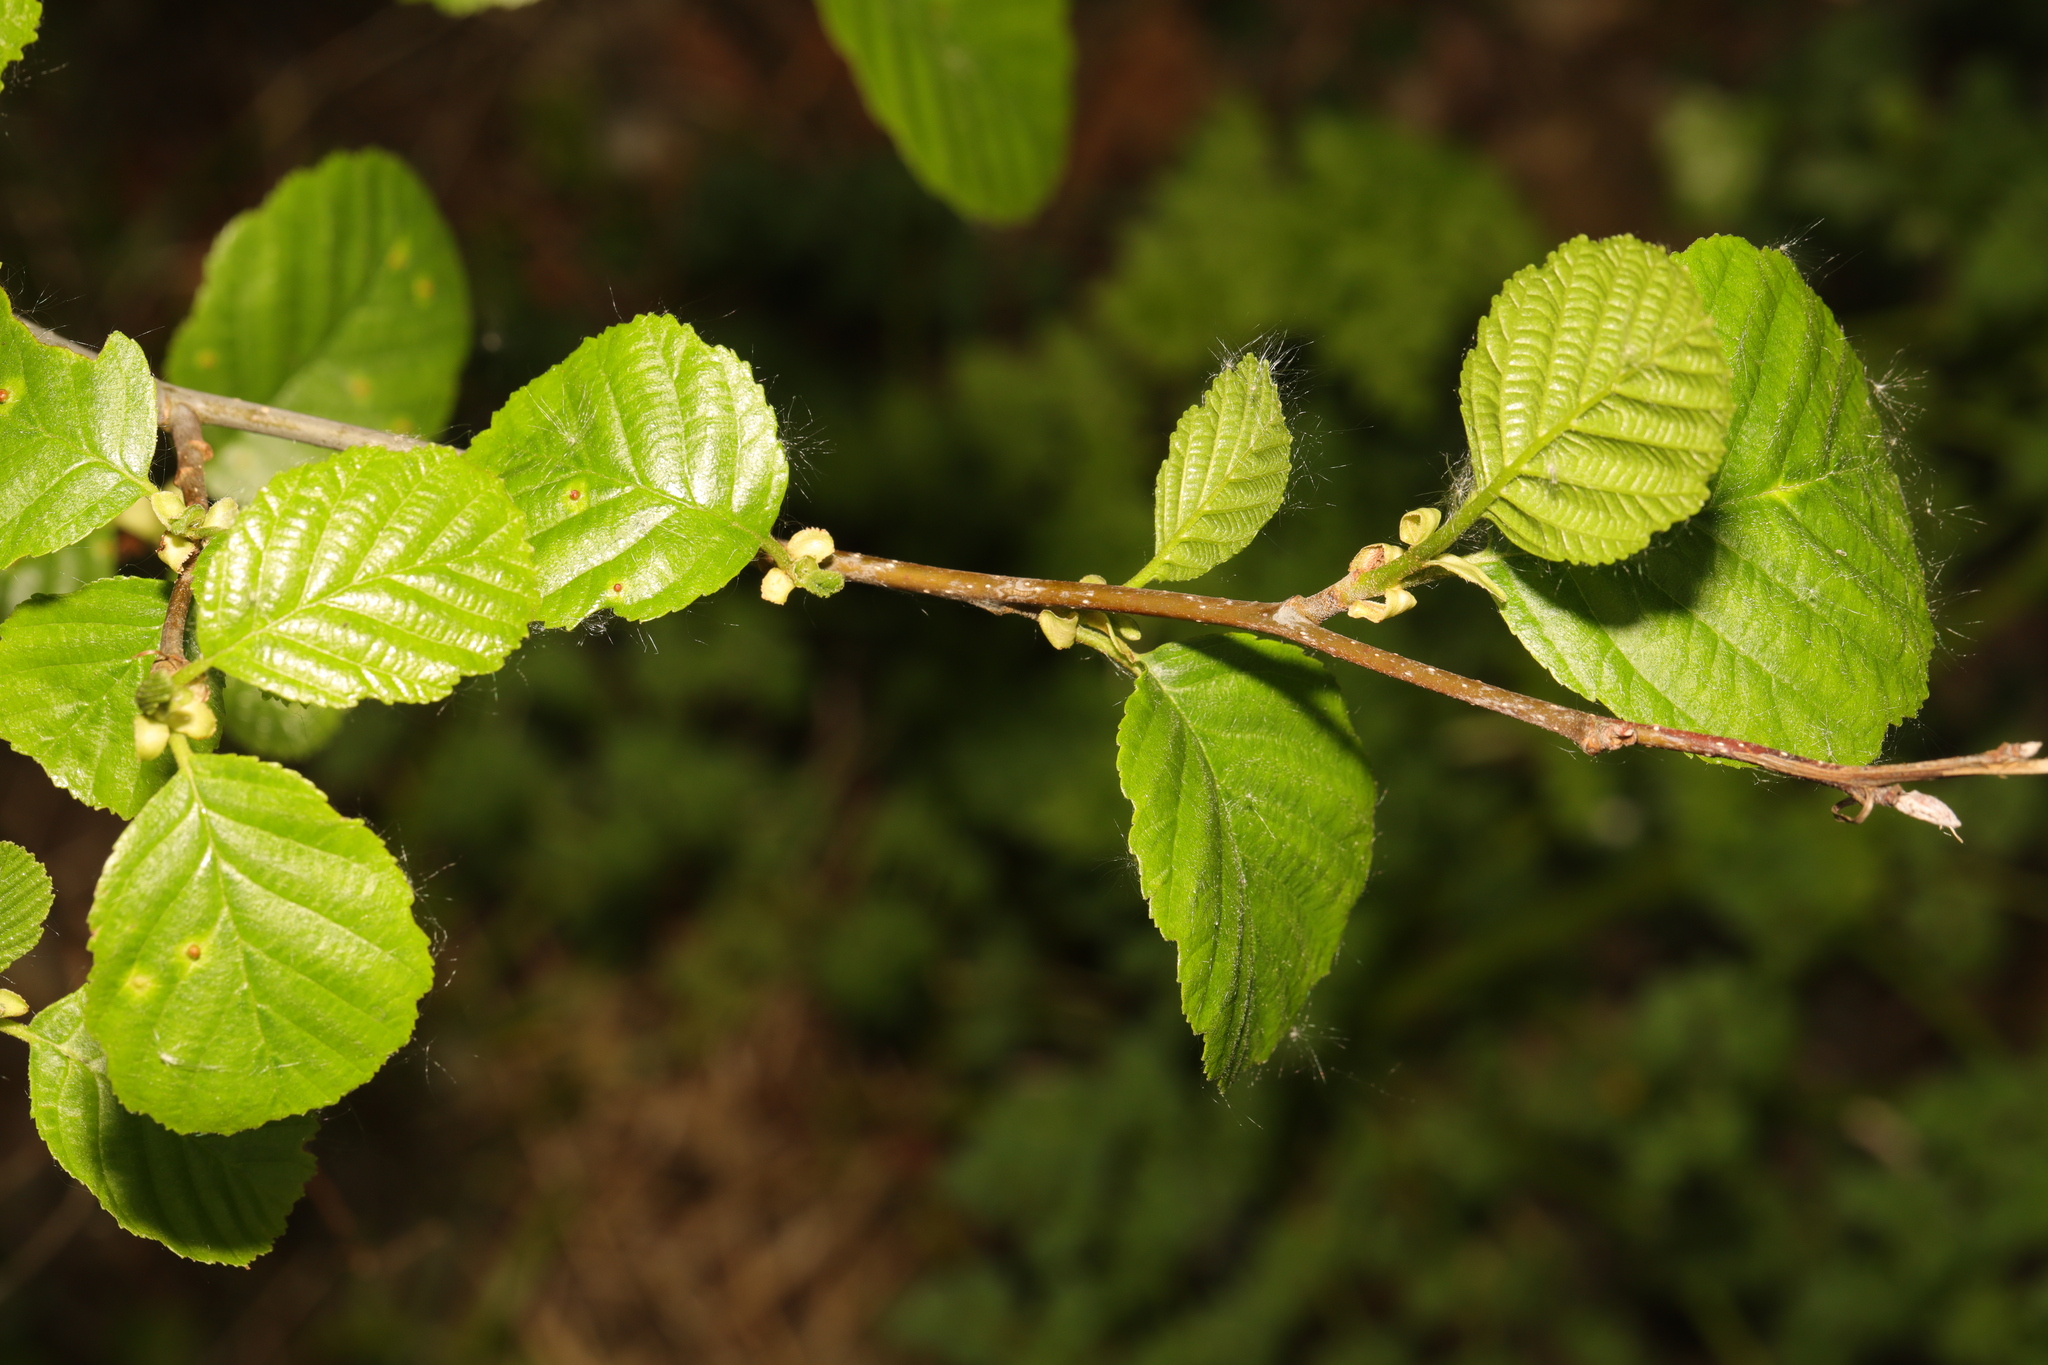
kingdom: Plantae
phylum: Tracheophyta
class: Magnoliopsida
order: Fagales
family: Betulaceae
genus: Alnus
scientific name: Alnus glutinosa
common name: Black alder
